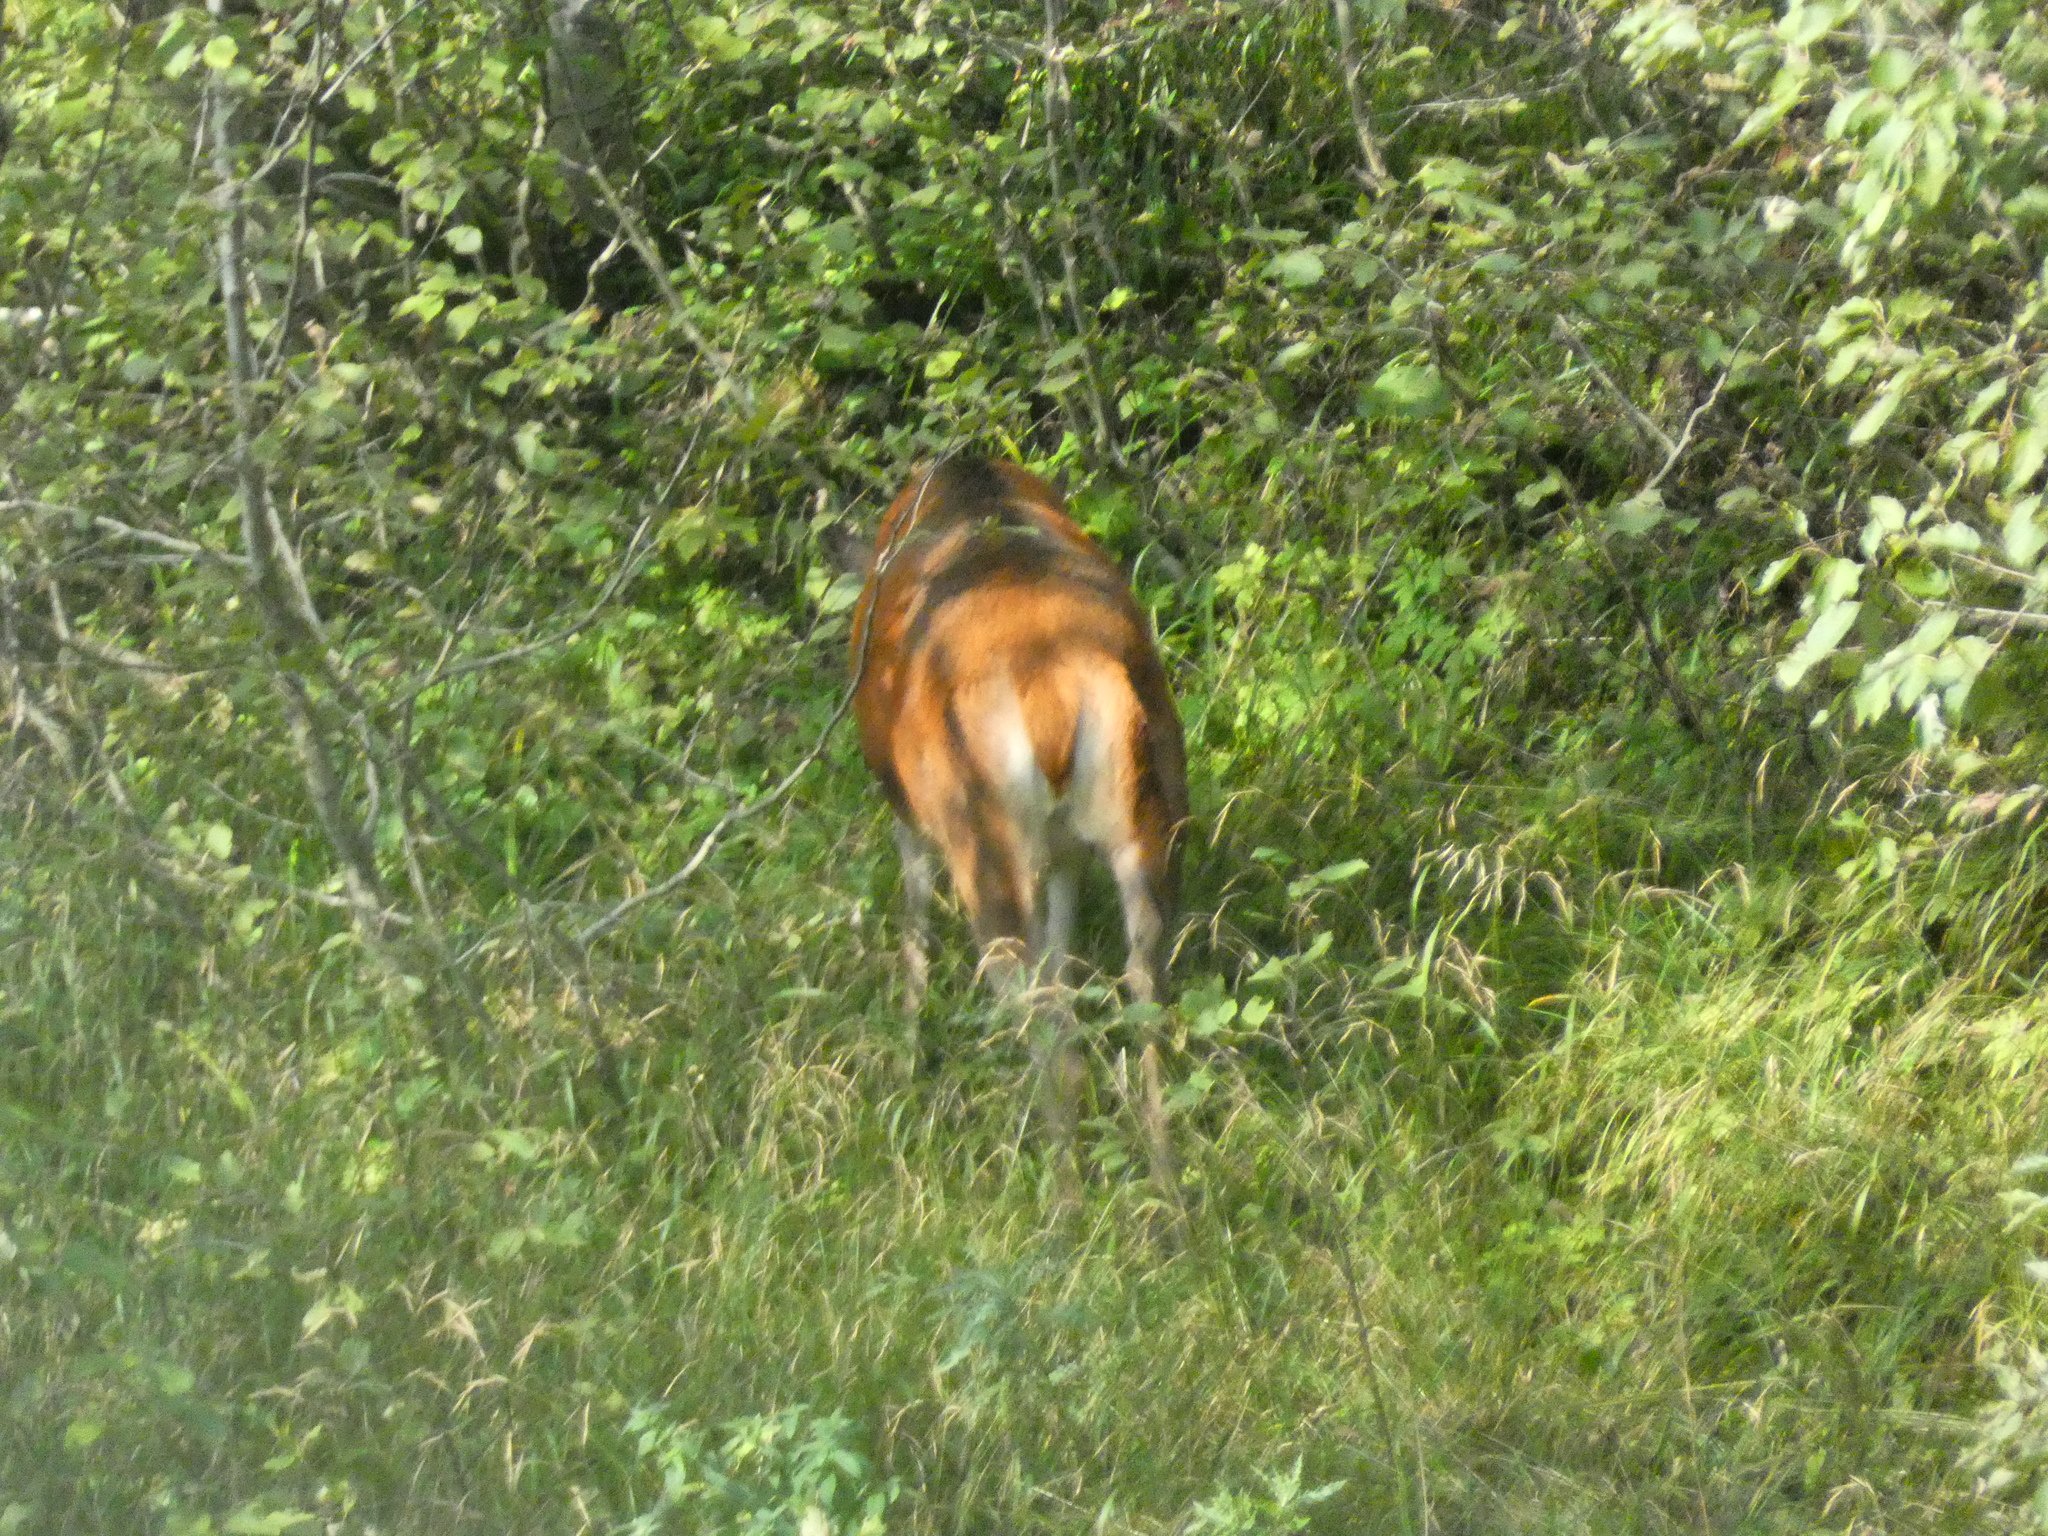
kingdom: Animalia
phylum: Chordata
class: Mammalia
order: Artiodactyla
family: Cervidae
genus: Cervus
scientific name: Cervus elaphus
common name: Red deer
